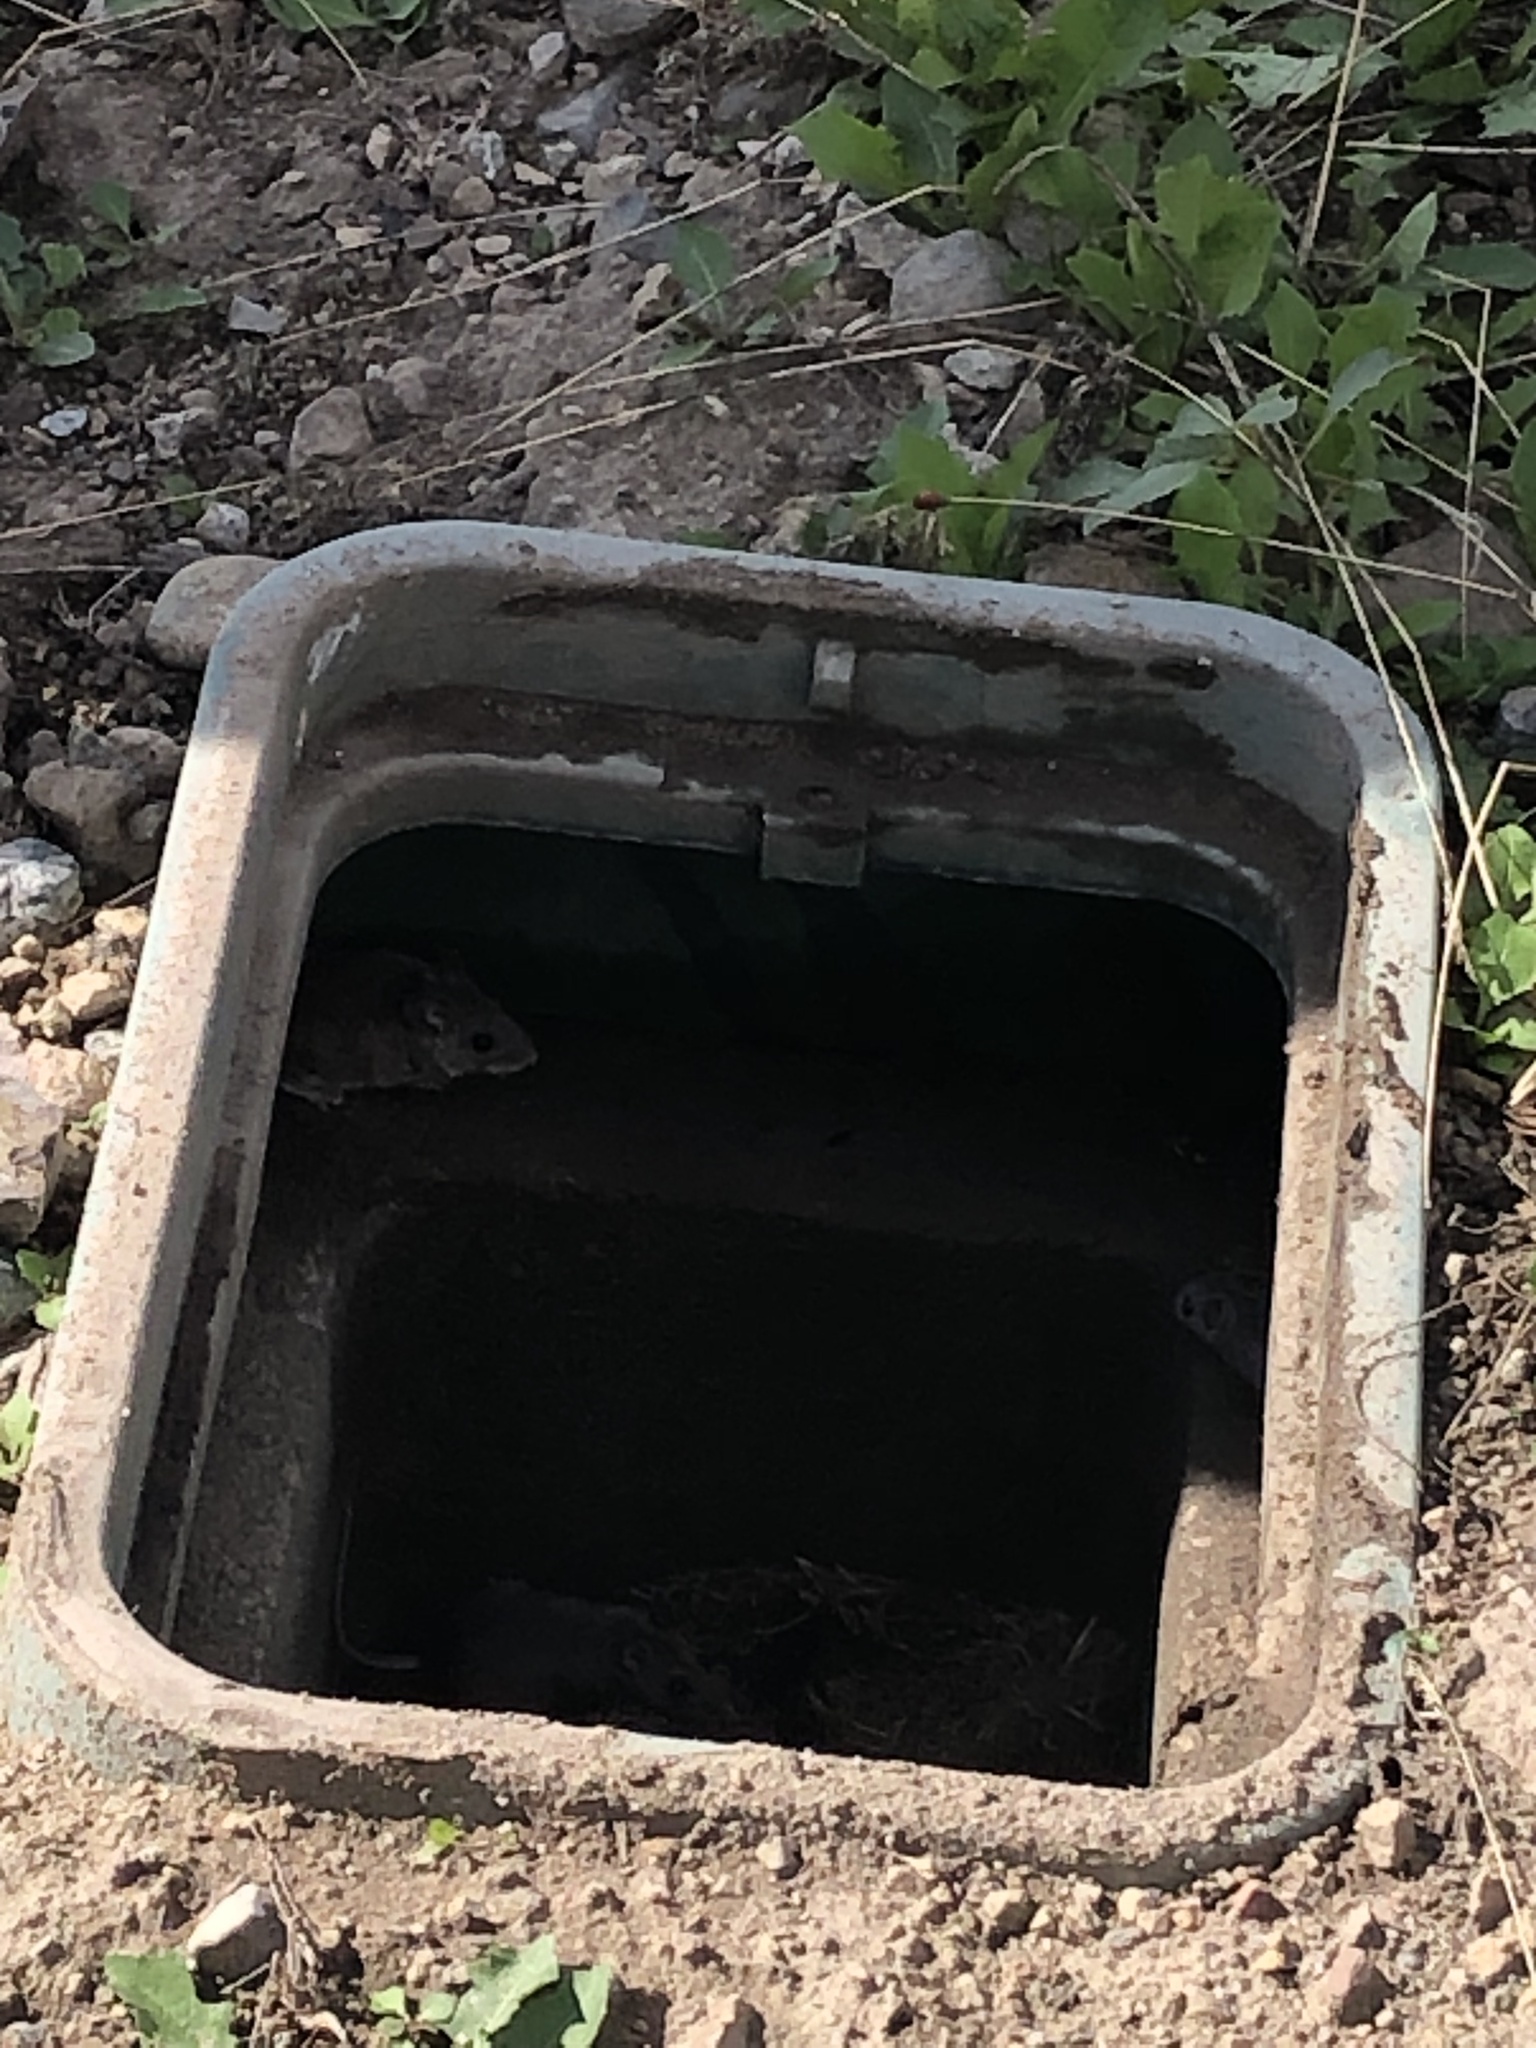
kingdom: Animalia
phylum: Chordata
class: Mammalia
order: Rodentia
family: Cricetidae
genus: Peromyscus
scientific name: Peromyscus maniculatus
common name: Deer mouse
